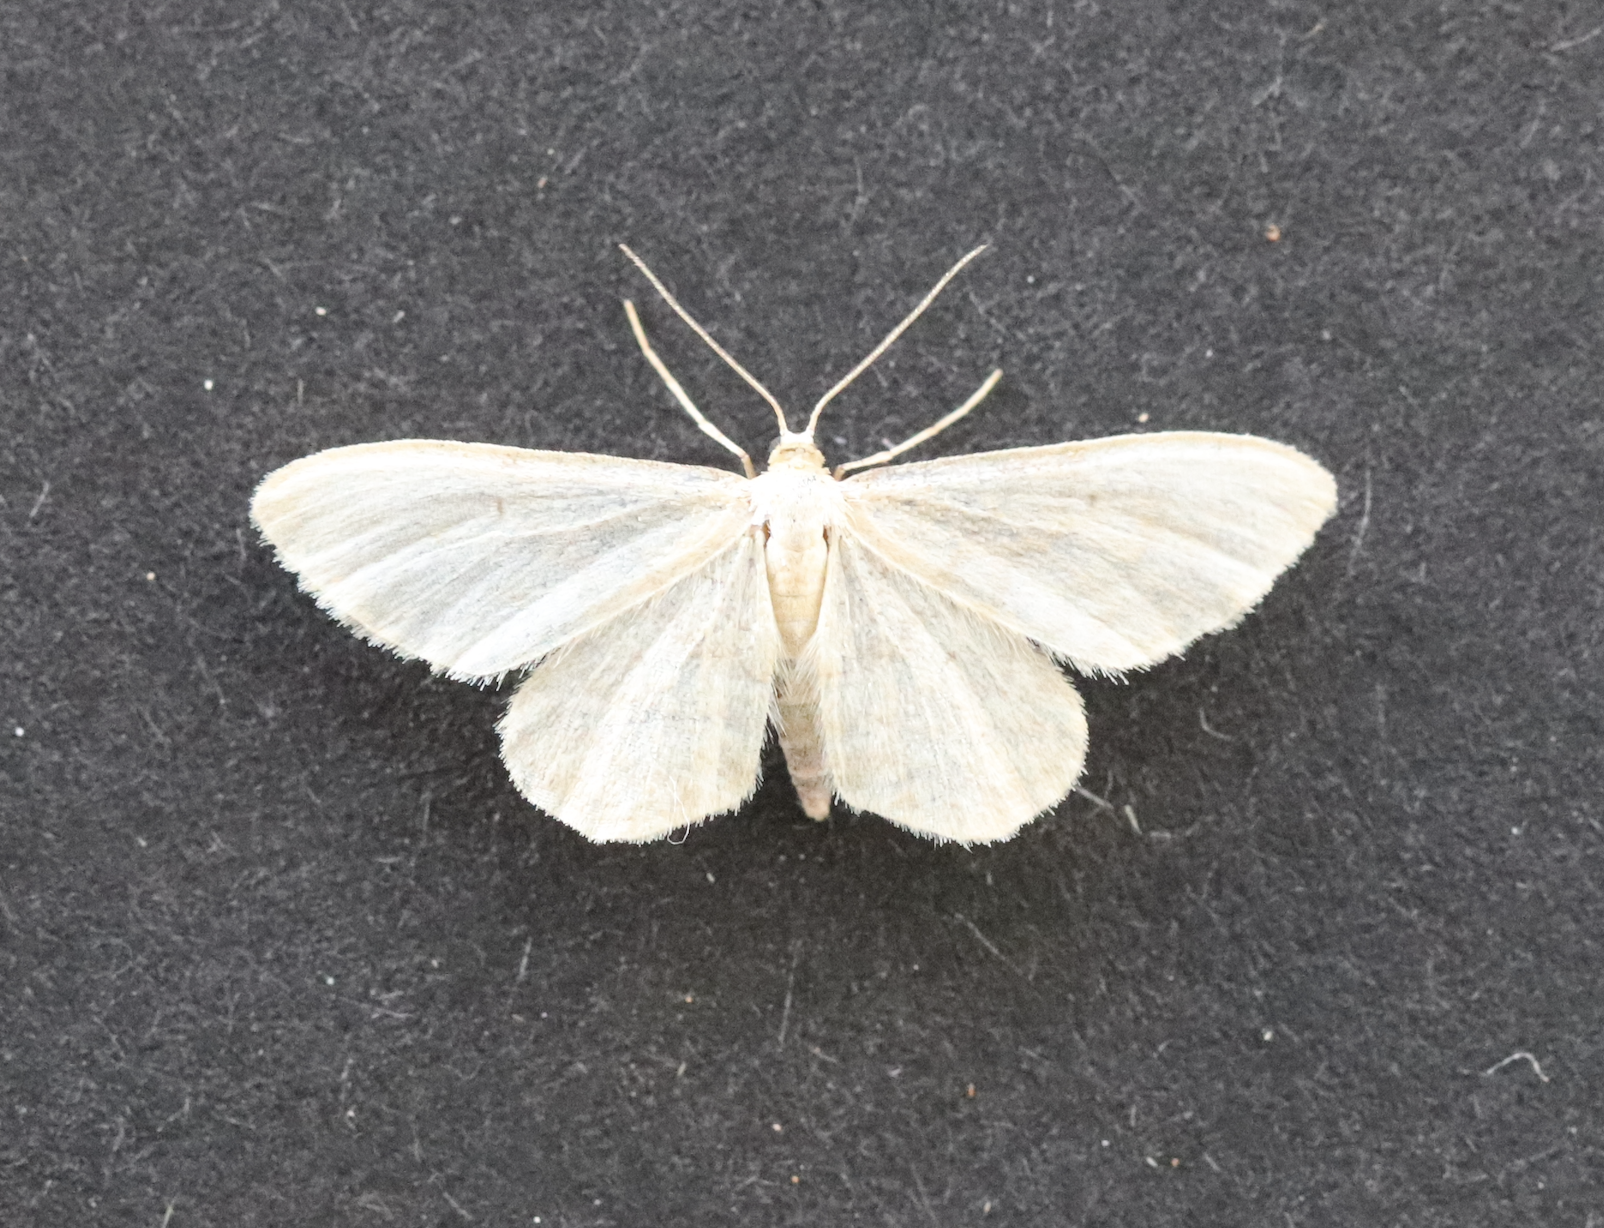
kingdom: Animalia
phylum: Arthropoda
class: Insecta
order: Lepidoptera
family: Geometridae
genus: Idaea
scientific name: Idaea dilutaria
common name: Silky wave
